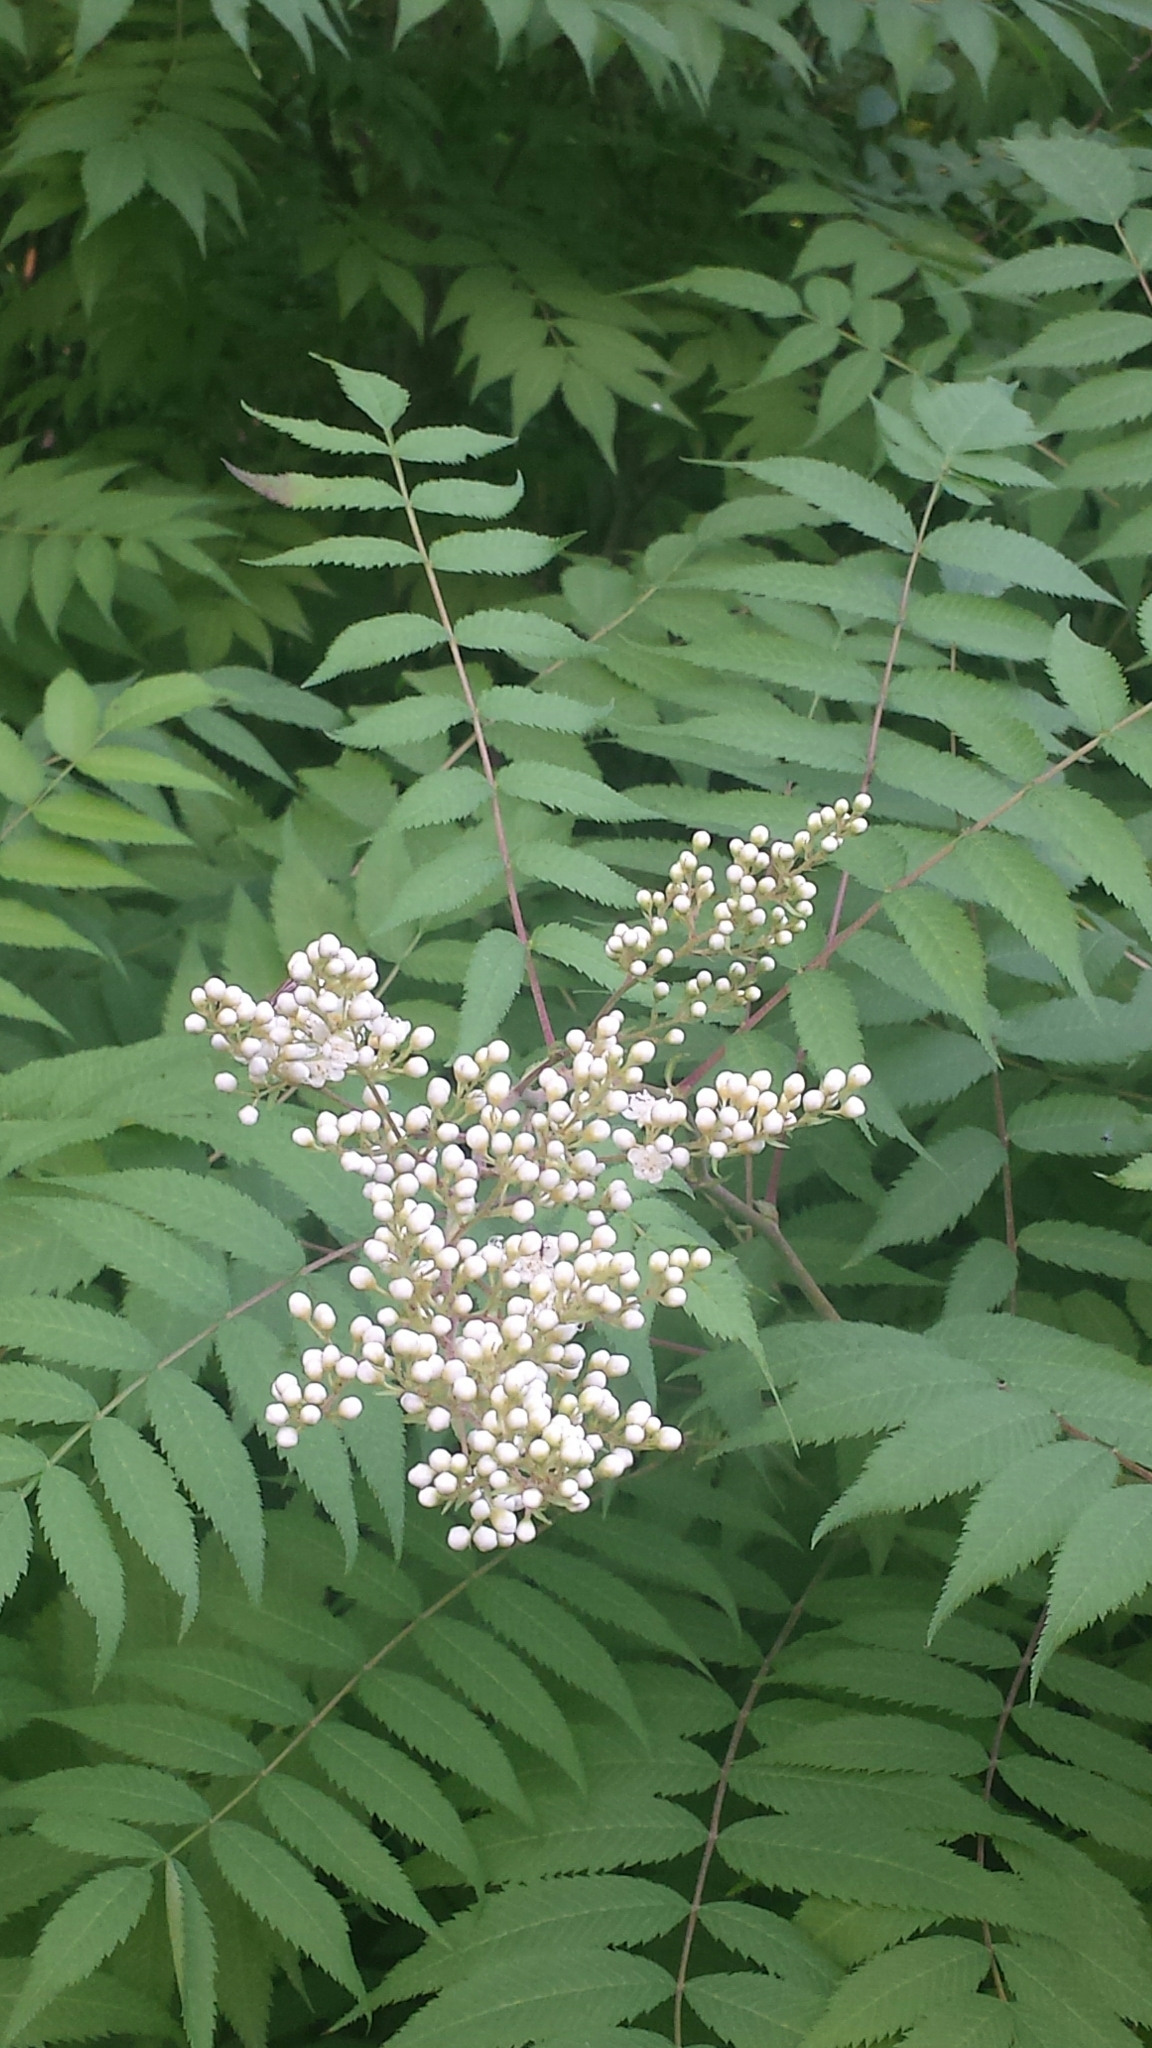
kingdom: Plantae
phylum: Tracheophyta
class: Magnoliopsida
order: Rosales
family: Rosaceae
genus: Sorbaria
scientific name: Sorbaria sorbifolia
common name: False spiraea
